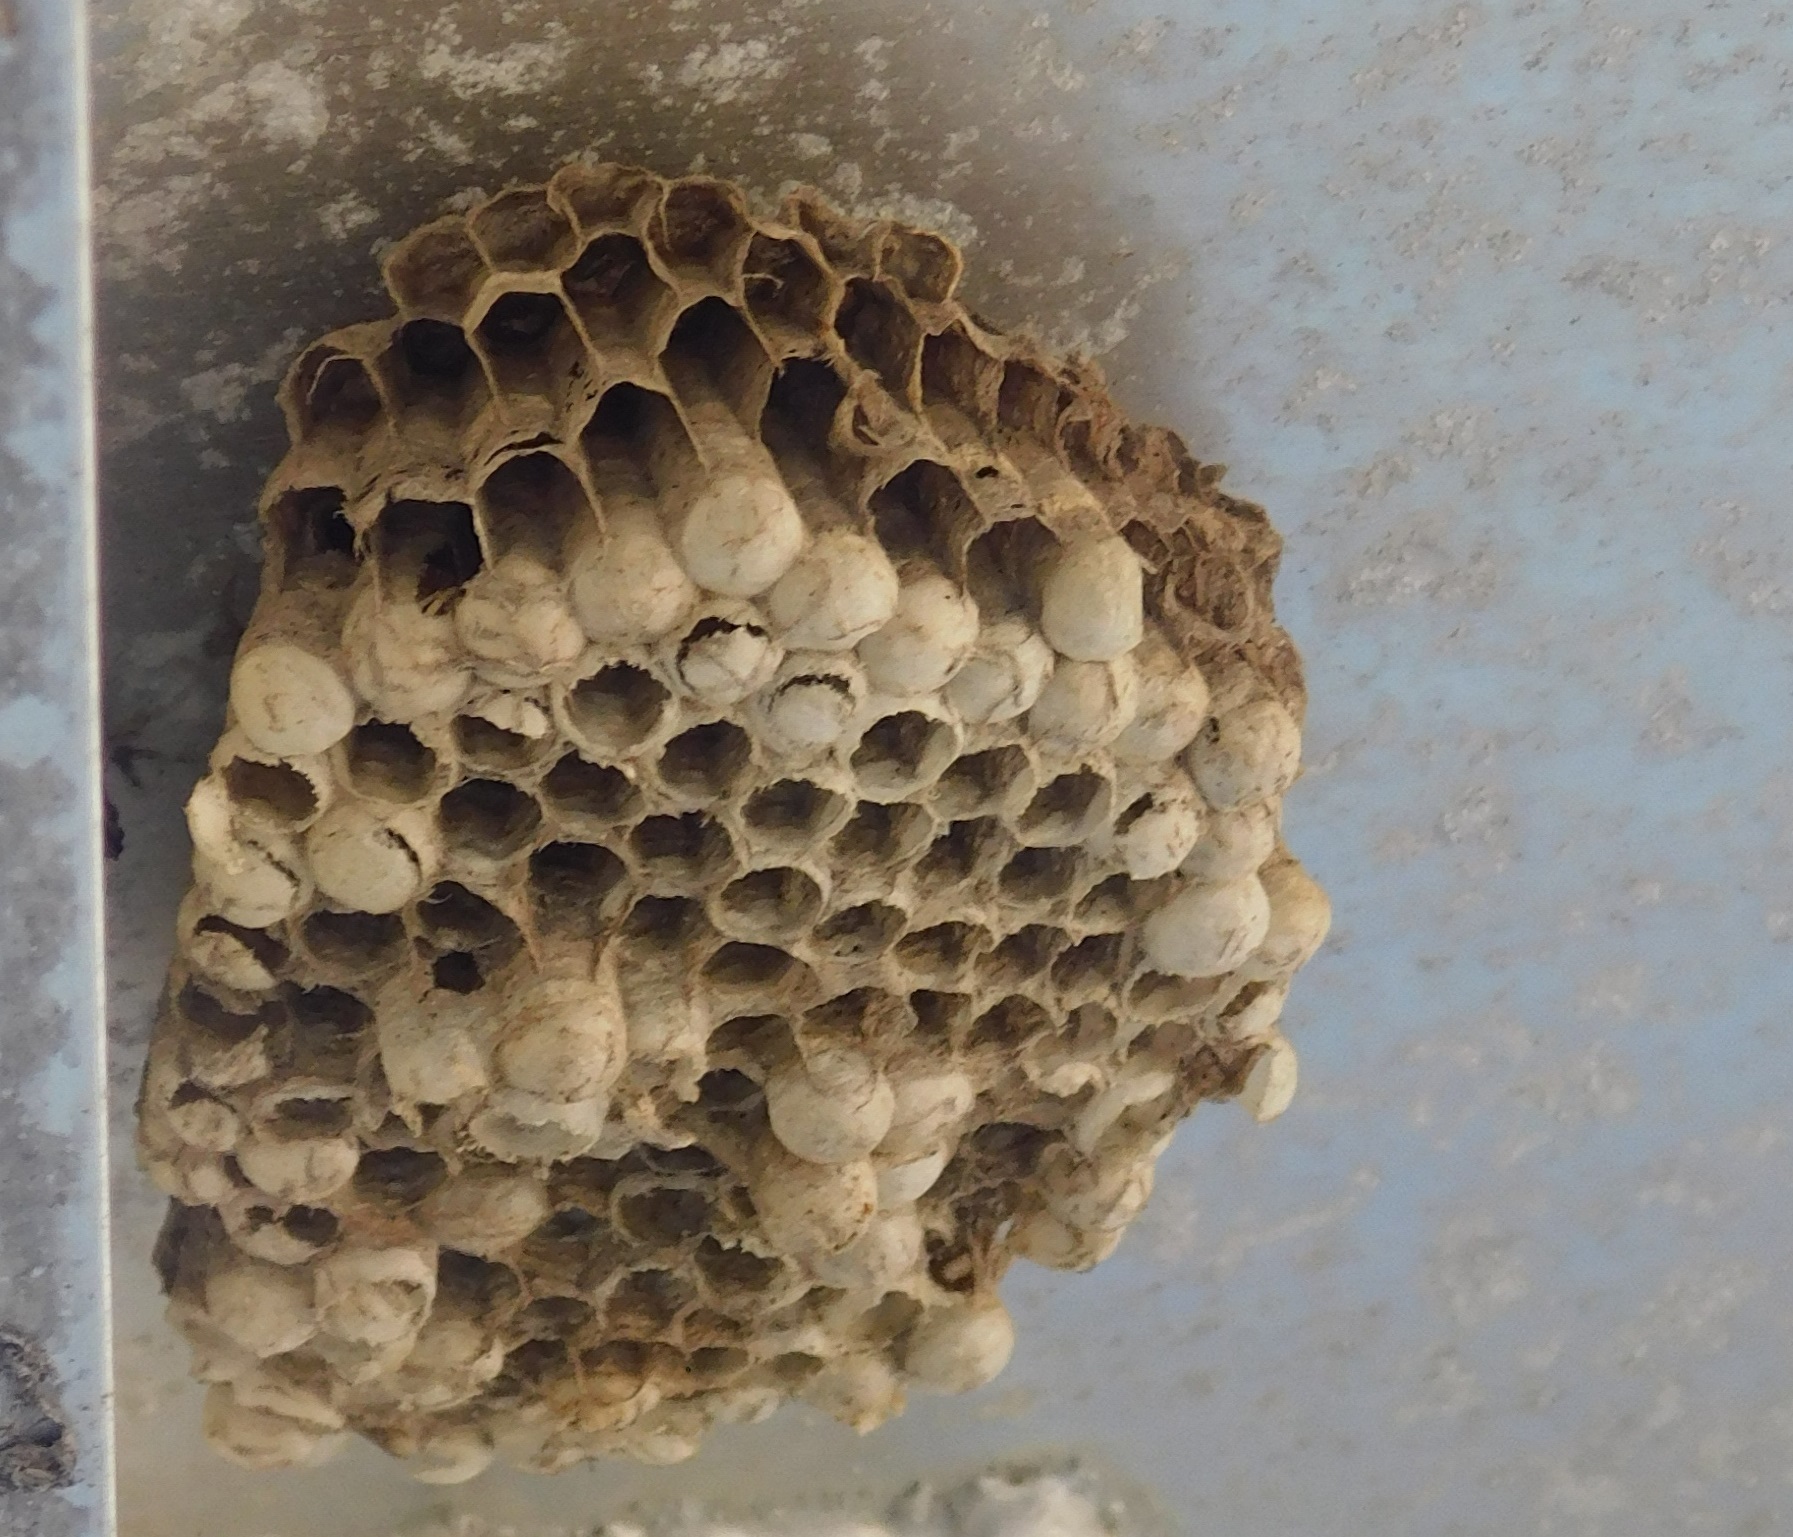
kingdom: Animalia
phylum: Arthropoda
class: Insecta
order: Hymenoptera
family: Vespidae
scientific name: Vespidae
